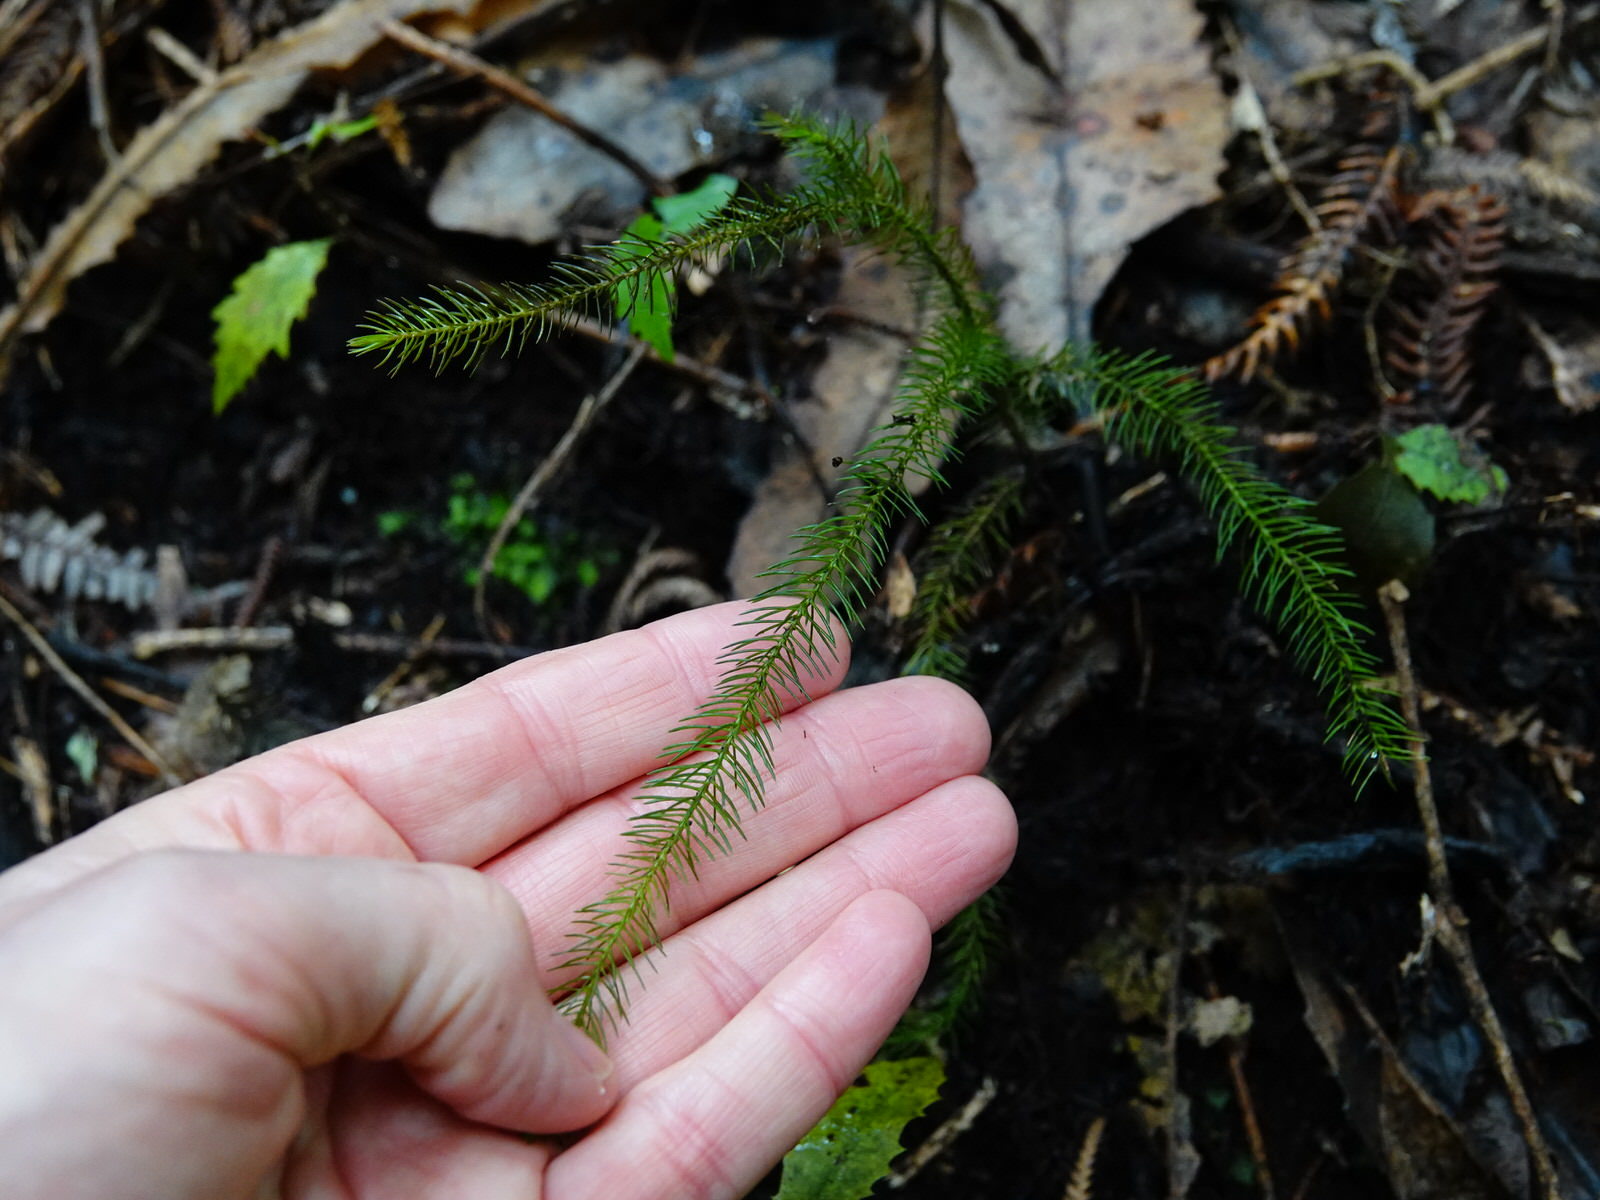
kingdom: Plantae
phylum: Tracheophyta
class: Pinopsida
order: Pinales
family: Podocarpaceae
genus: Dacrydium
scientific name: Dacrydium cupressinum
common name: Red pine
